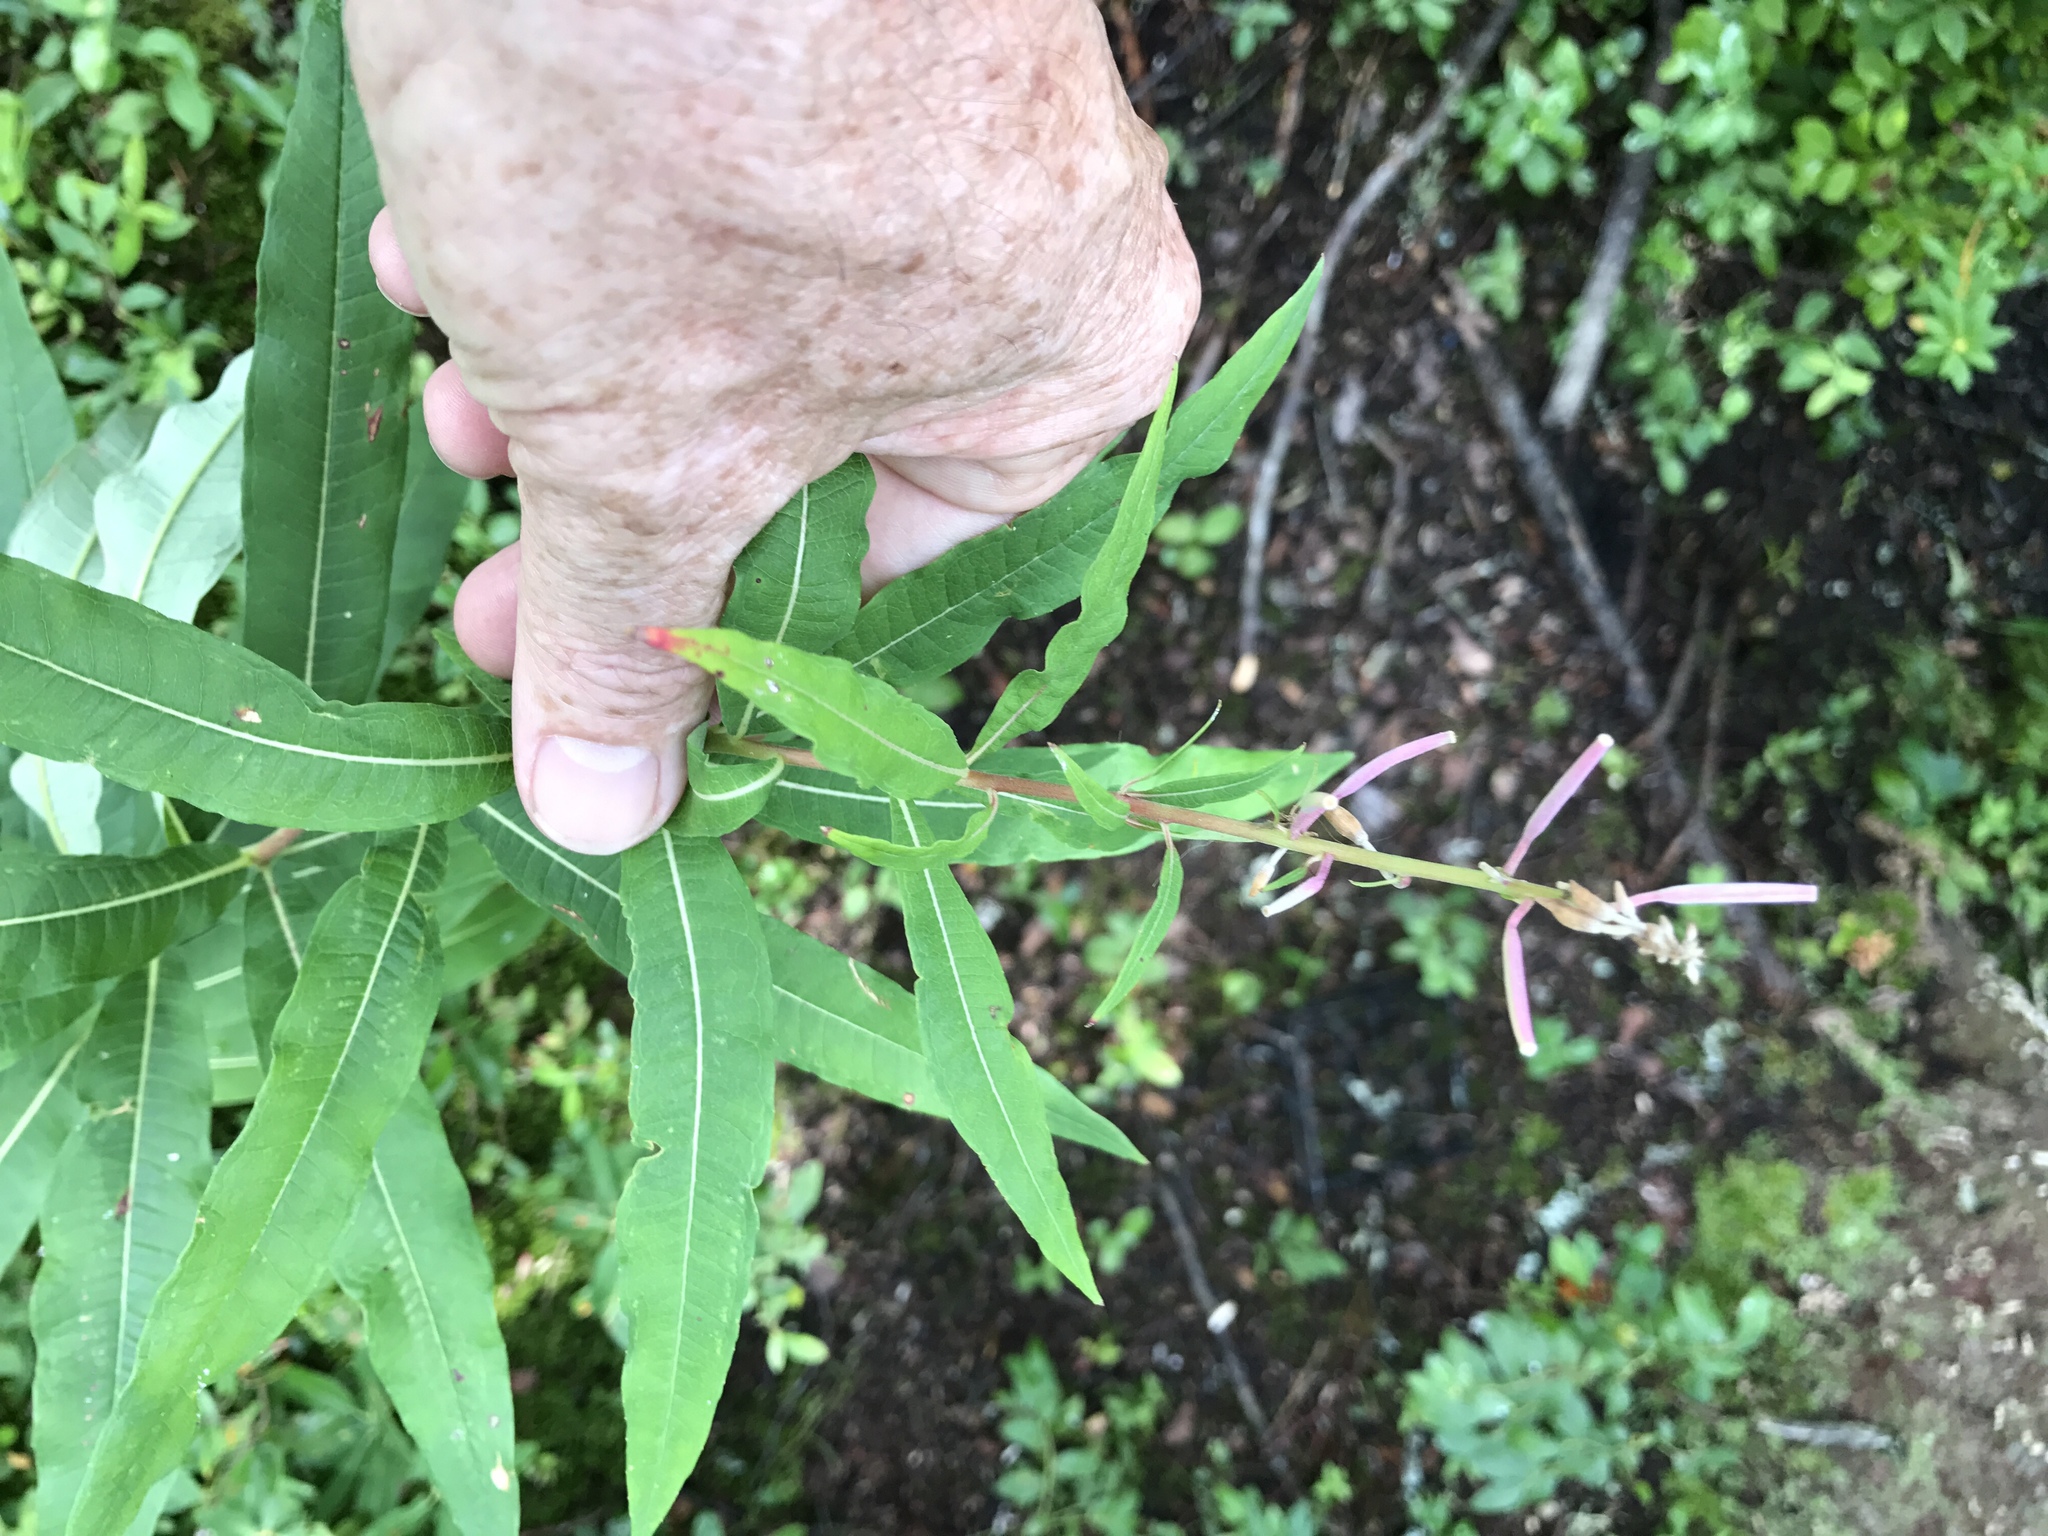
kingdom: Plantae
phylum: Tracheophyta
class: Magnoliopsida
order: Myrtales
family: Onagraceae
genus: Chamaenerion
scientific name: Chamaenerion angustifolium
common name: Fireweed
